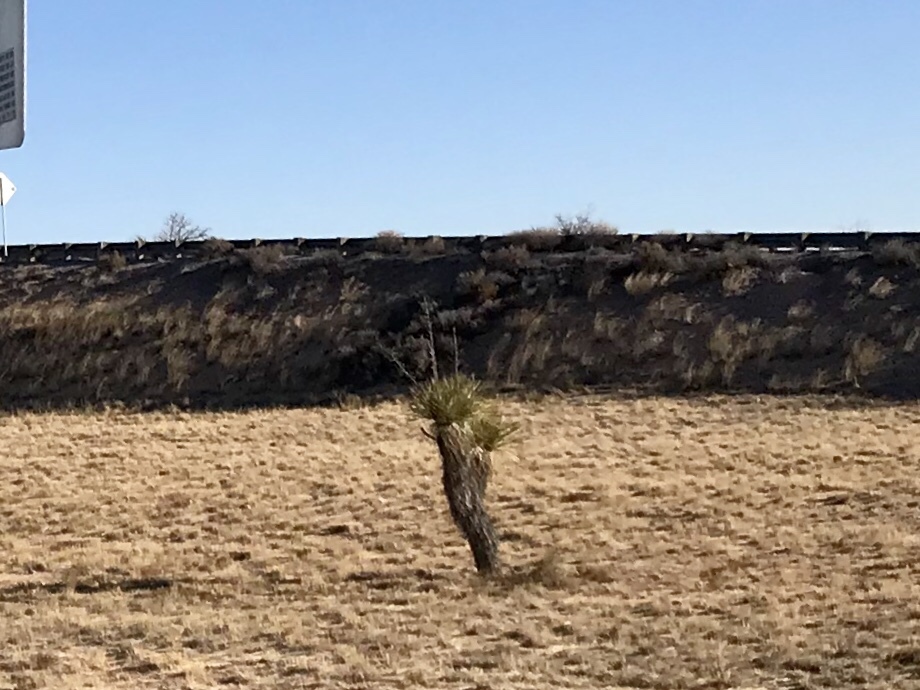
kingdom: Plantae
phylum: Tracheophyta
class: Liliopsida
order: Asparagales
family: Asparagaceae
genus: Yucca
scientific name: Yucca elata
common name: Palmella
